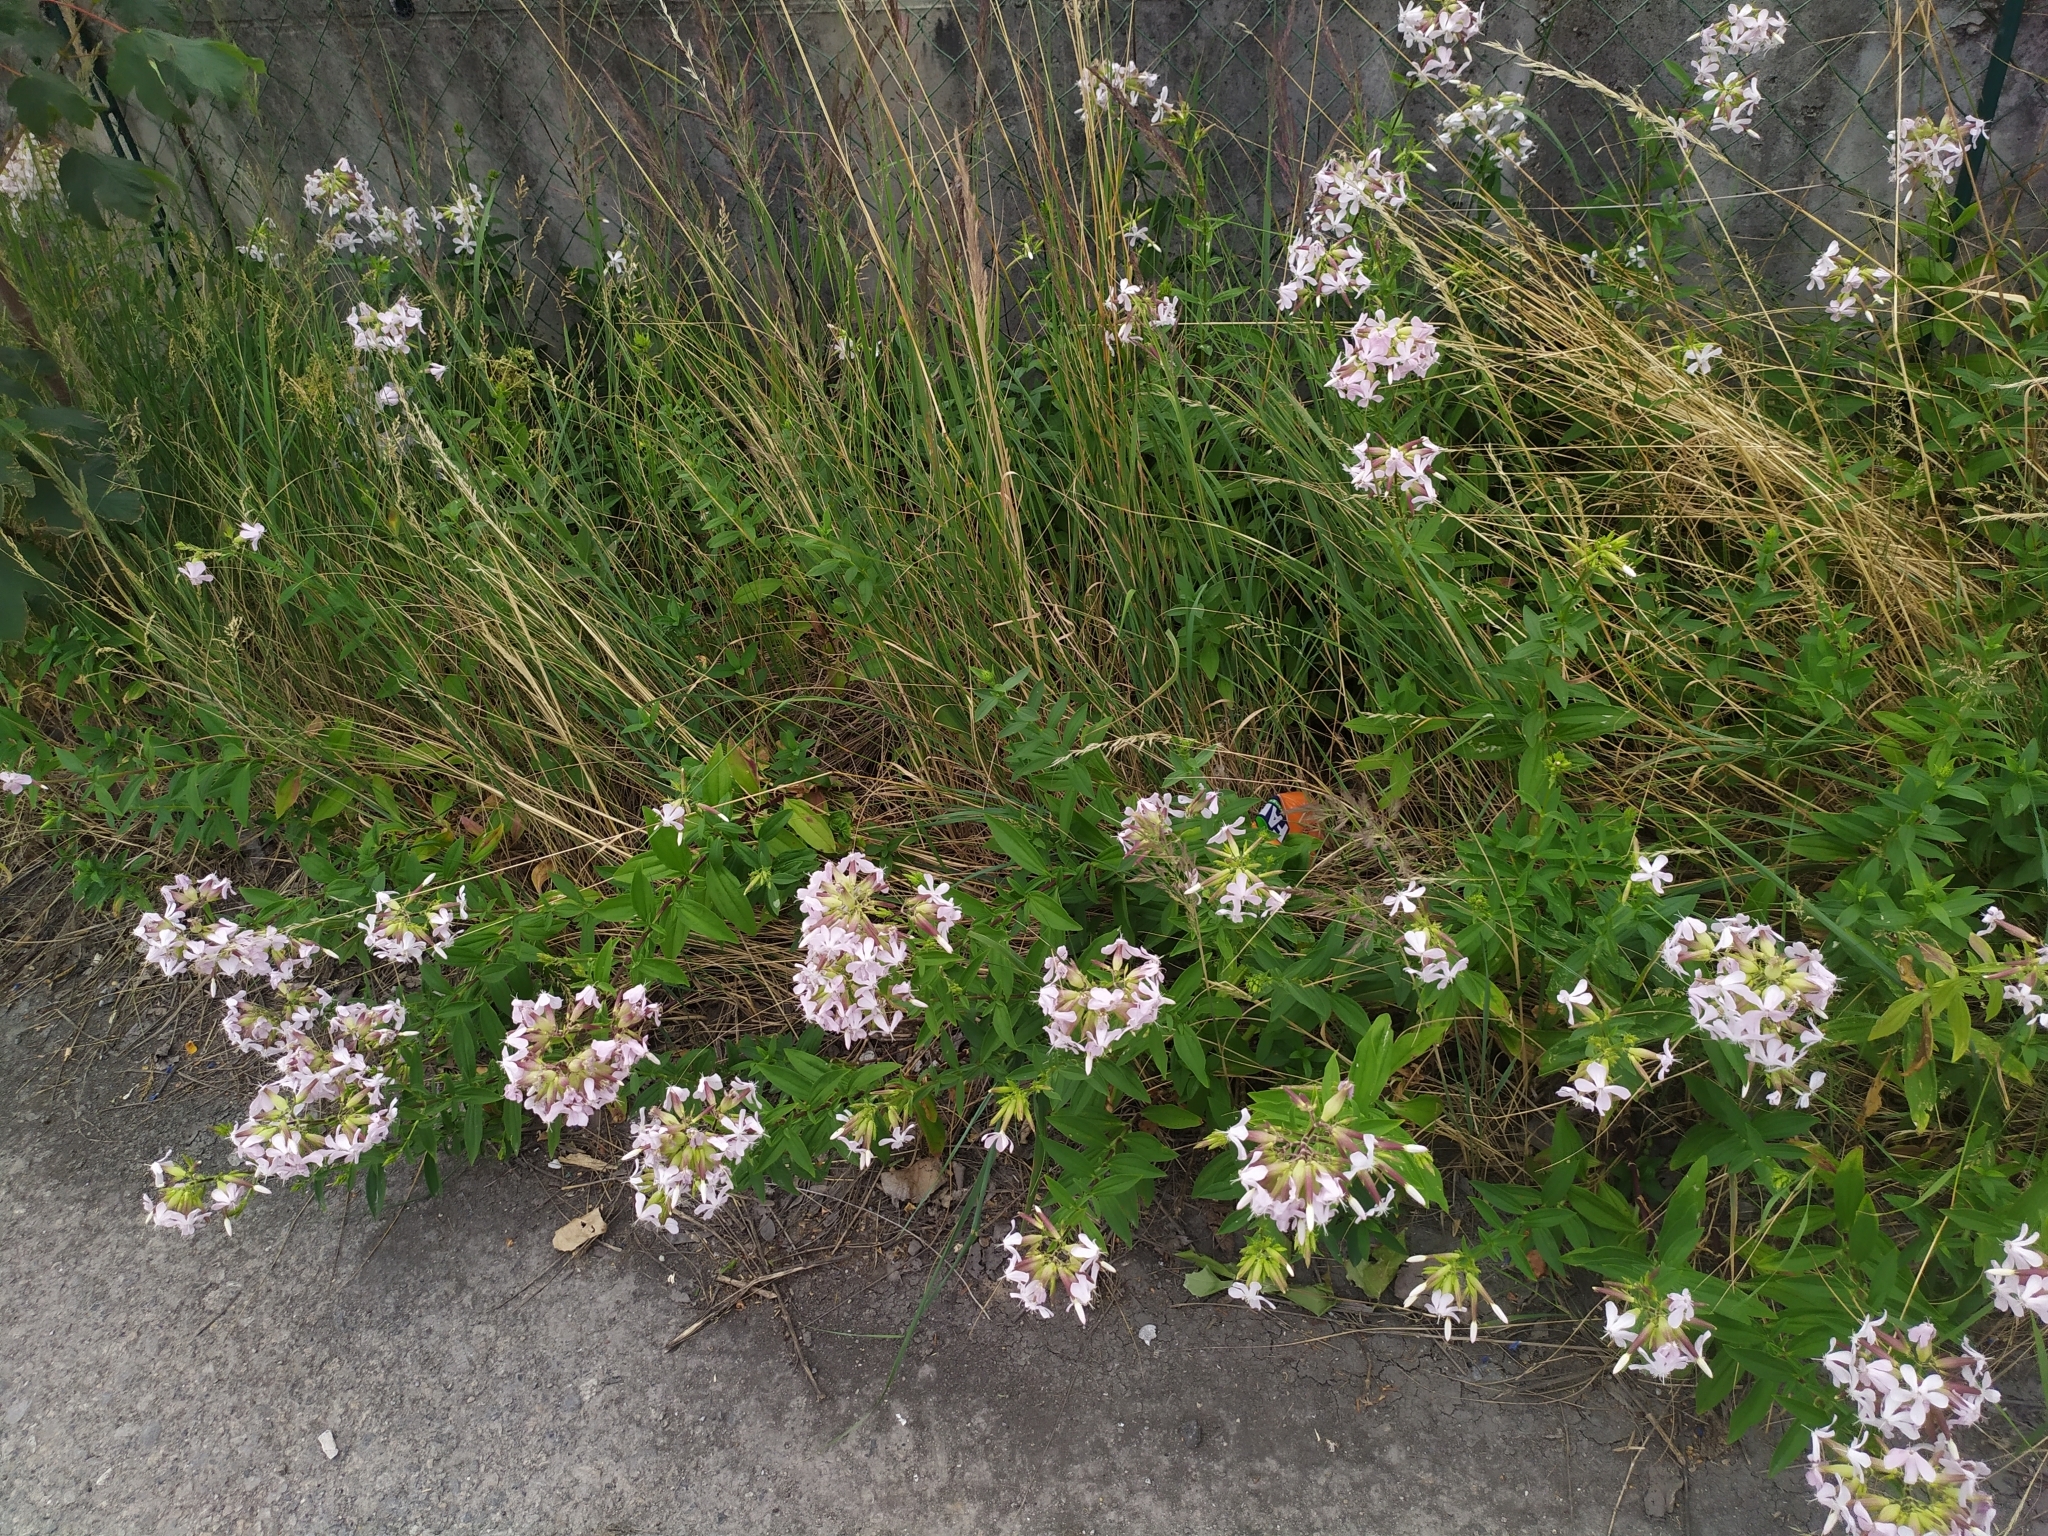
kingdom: Plantae
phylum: Tracheophyta
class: Magnoliopsida
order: Caryophyllales
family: Caryophyllaceae
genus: Saponaria
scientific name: Saponaria officinalis
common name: Soapwort
